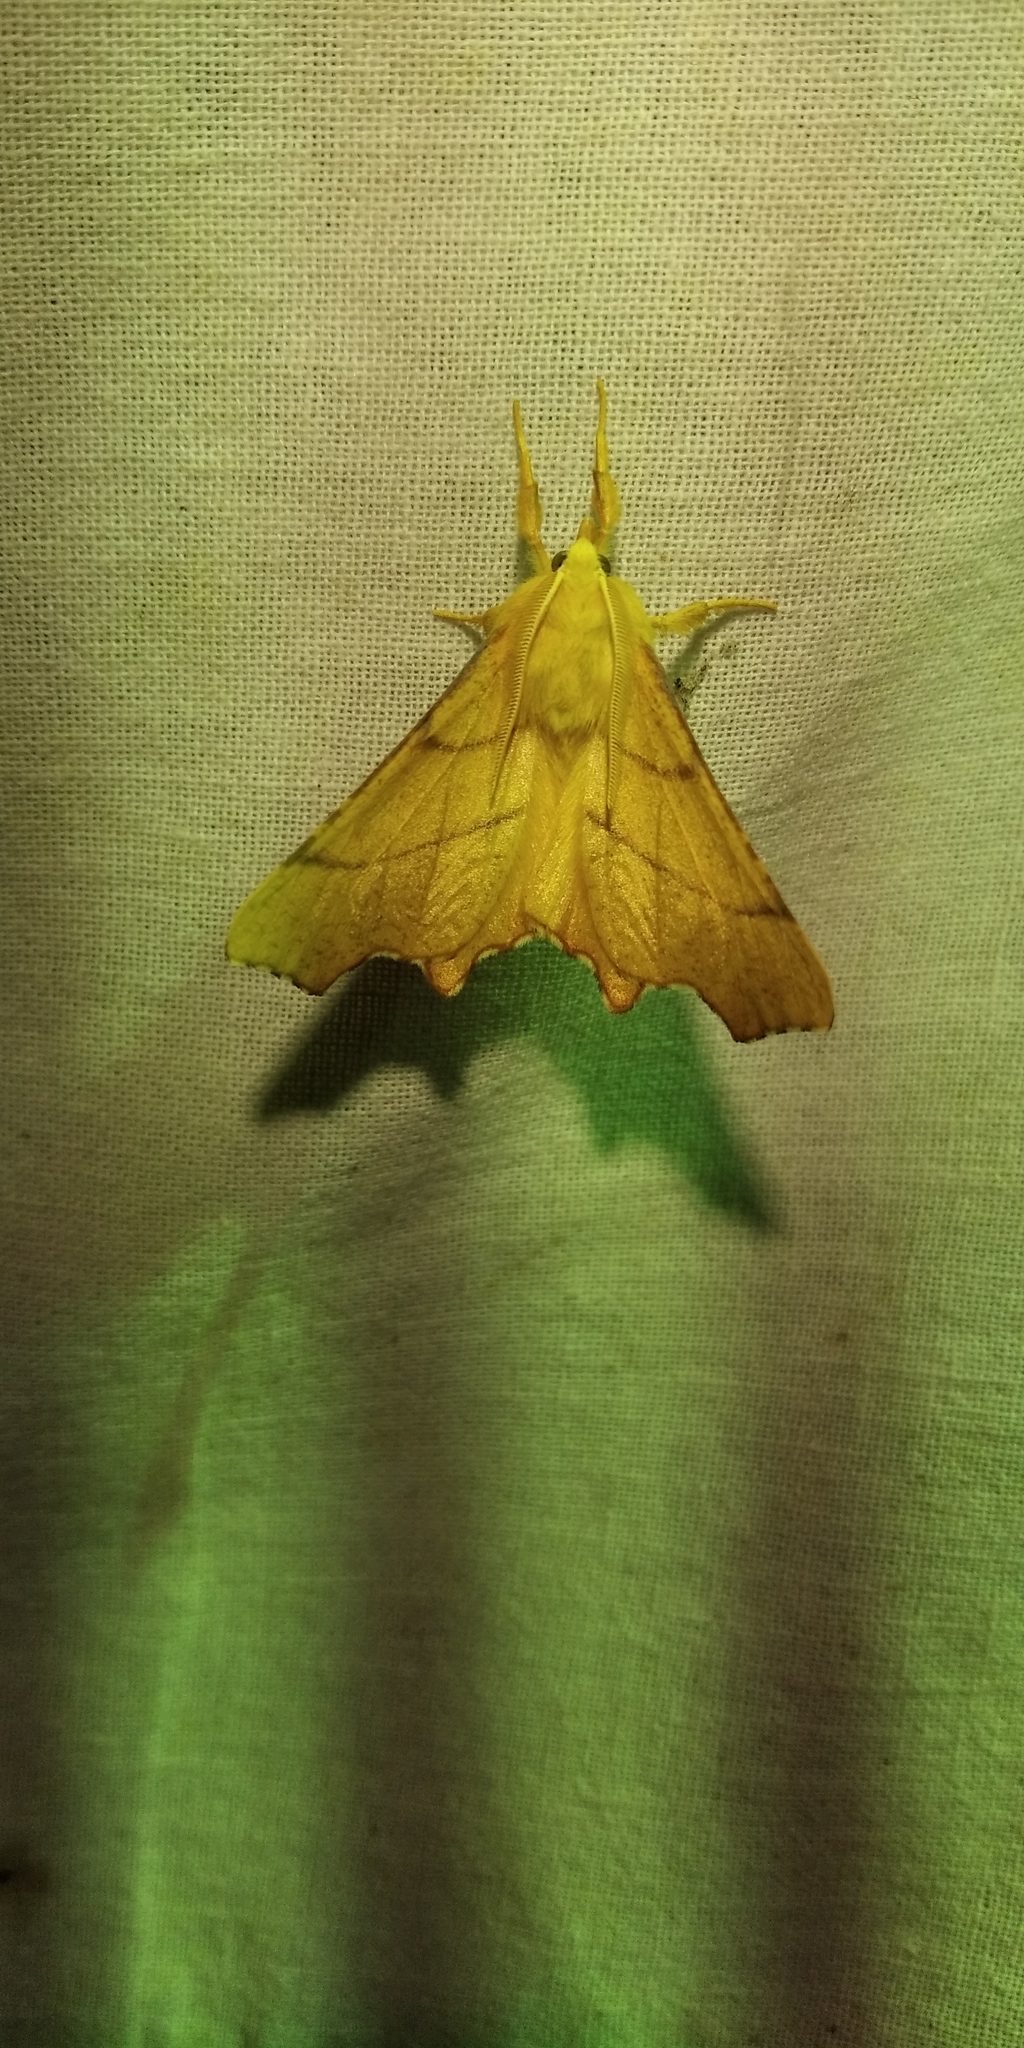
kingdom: Animalia
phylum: Arthropoda
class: Insecta
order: Lepidoptera
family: Geometridae
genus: Ennomos
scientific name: Ennomos erosaria
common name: September thorn
